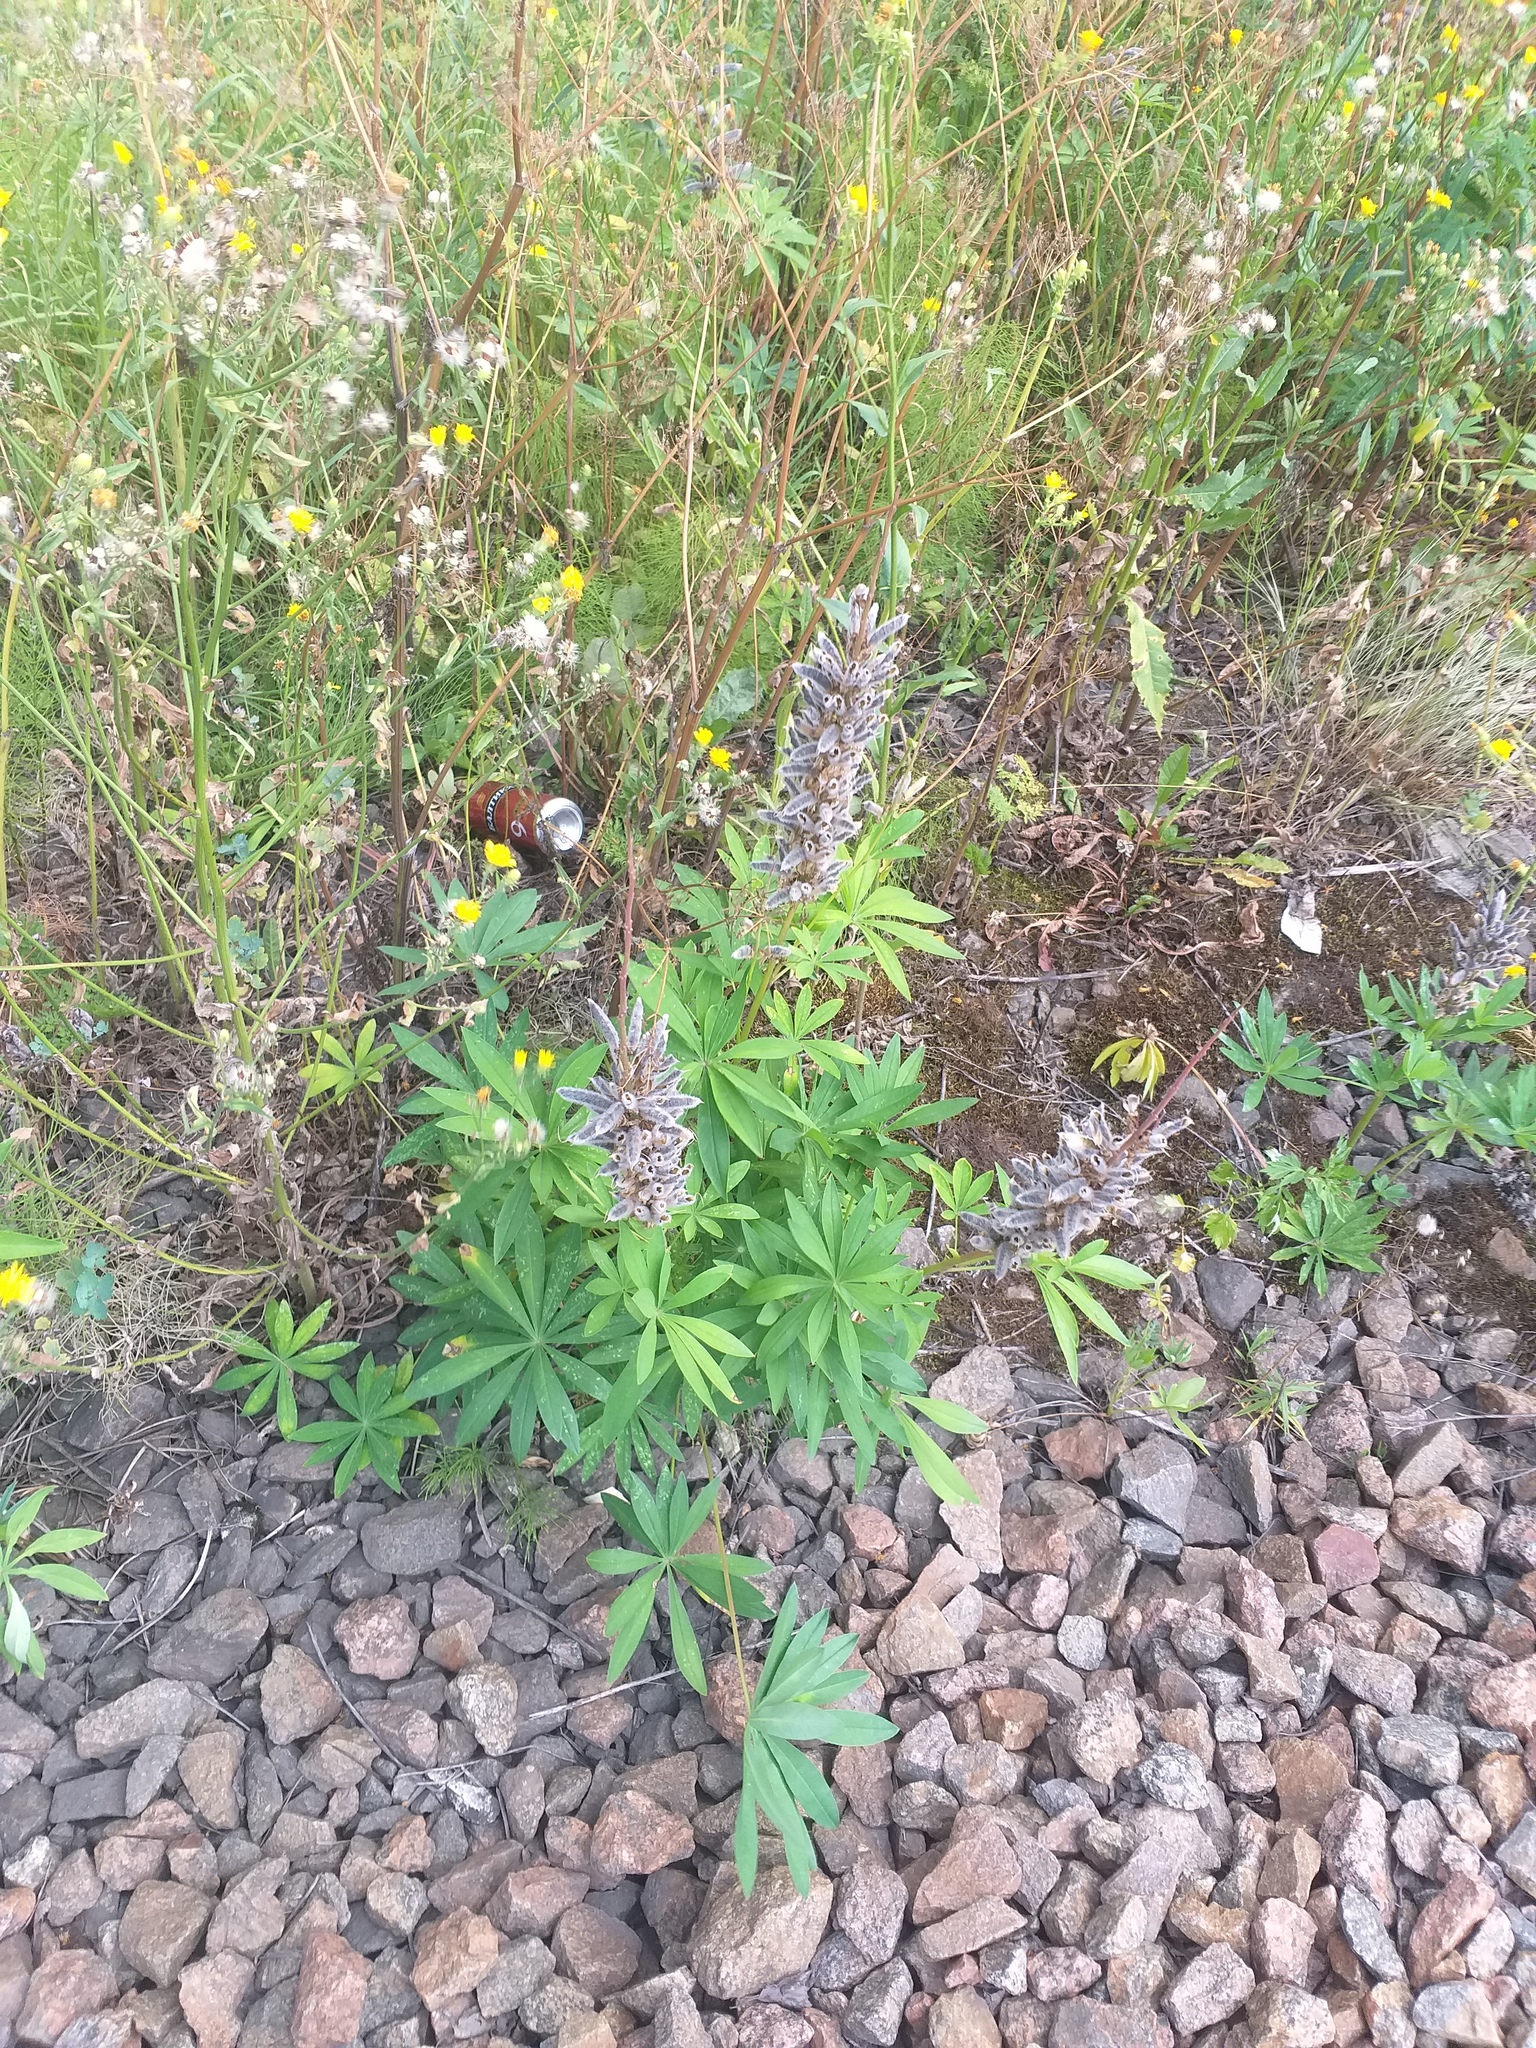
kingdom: Plantae
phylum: Tracheophyta
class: Magnoliopsida
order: Fabales
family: Fabaceae
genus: Lupinus
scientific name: Lupinus polyphyllus
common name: Garden lupin
